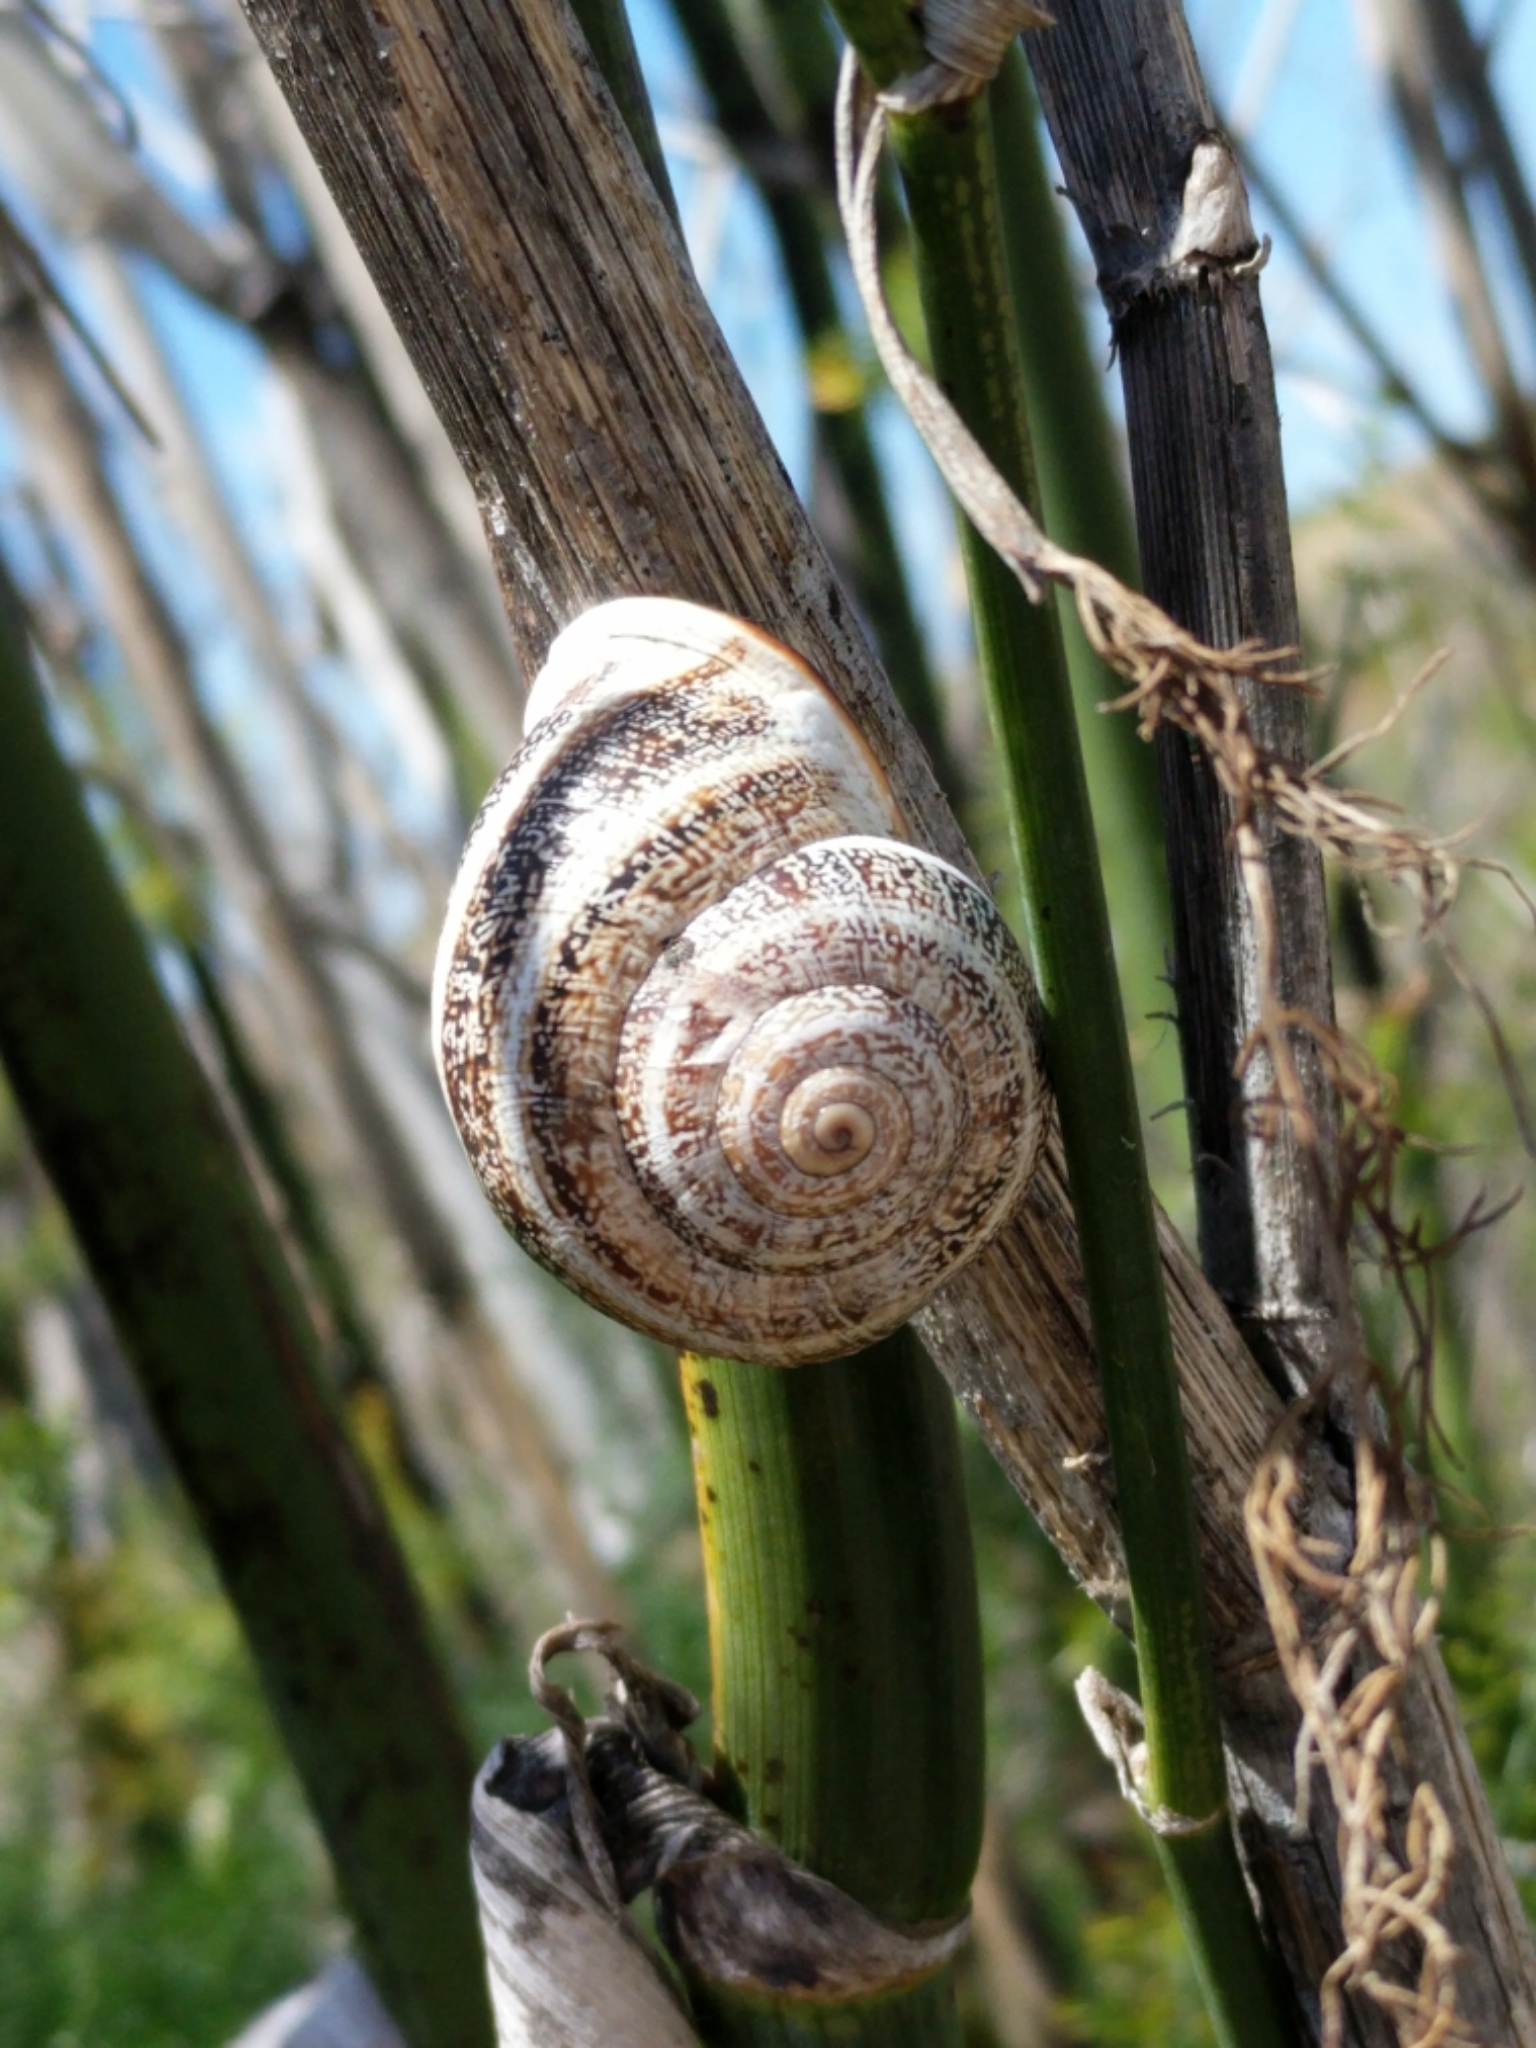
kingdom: Animalia
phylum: Mollusca
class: Gastropoda
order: Stylommatophora
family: Helicidae
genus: Otala
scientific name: Otala lactea
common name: Milk snail
